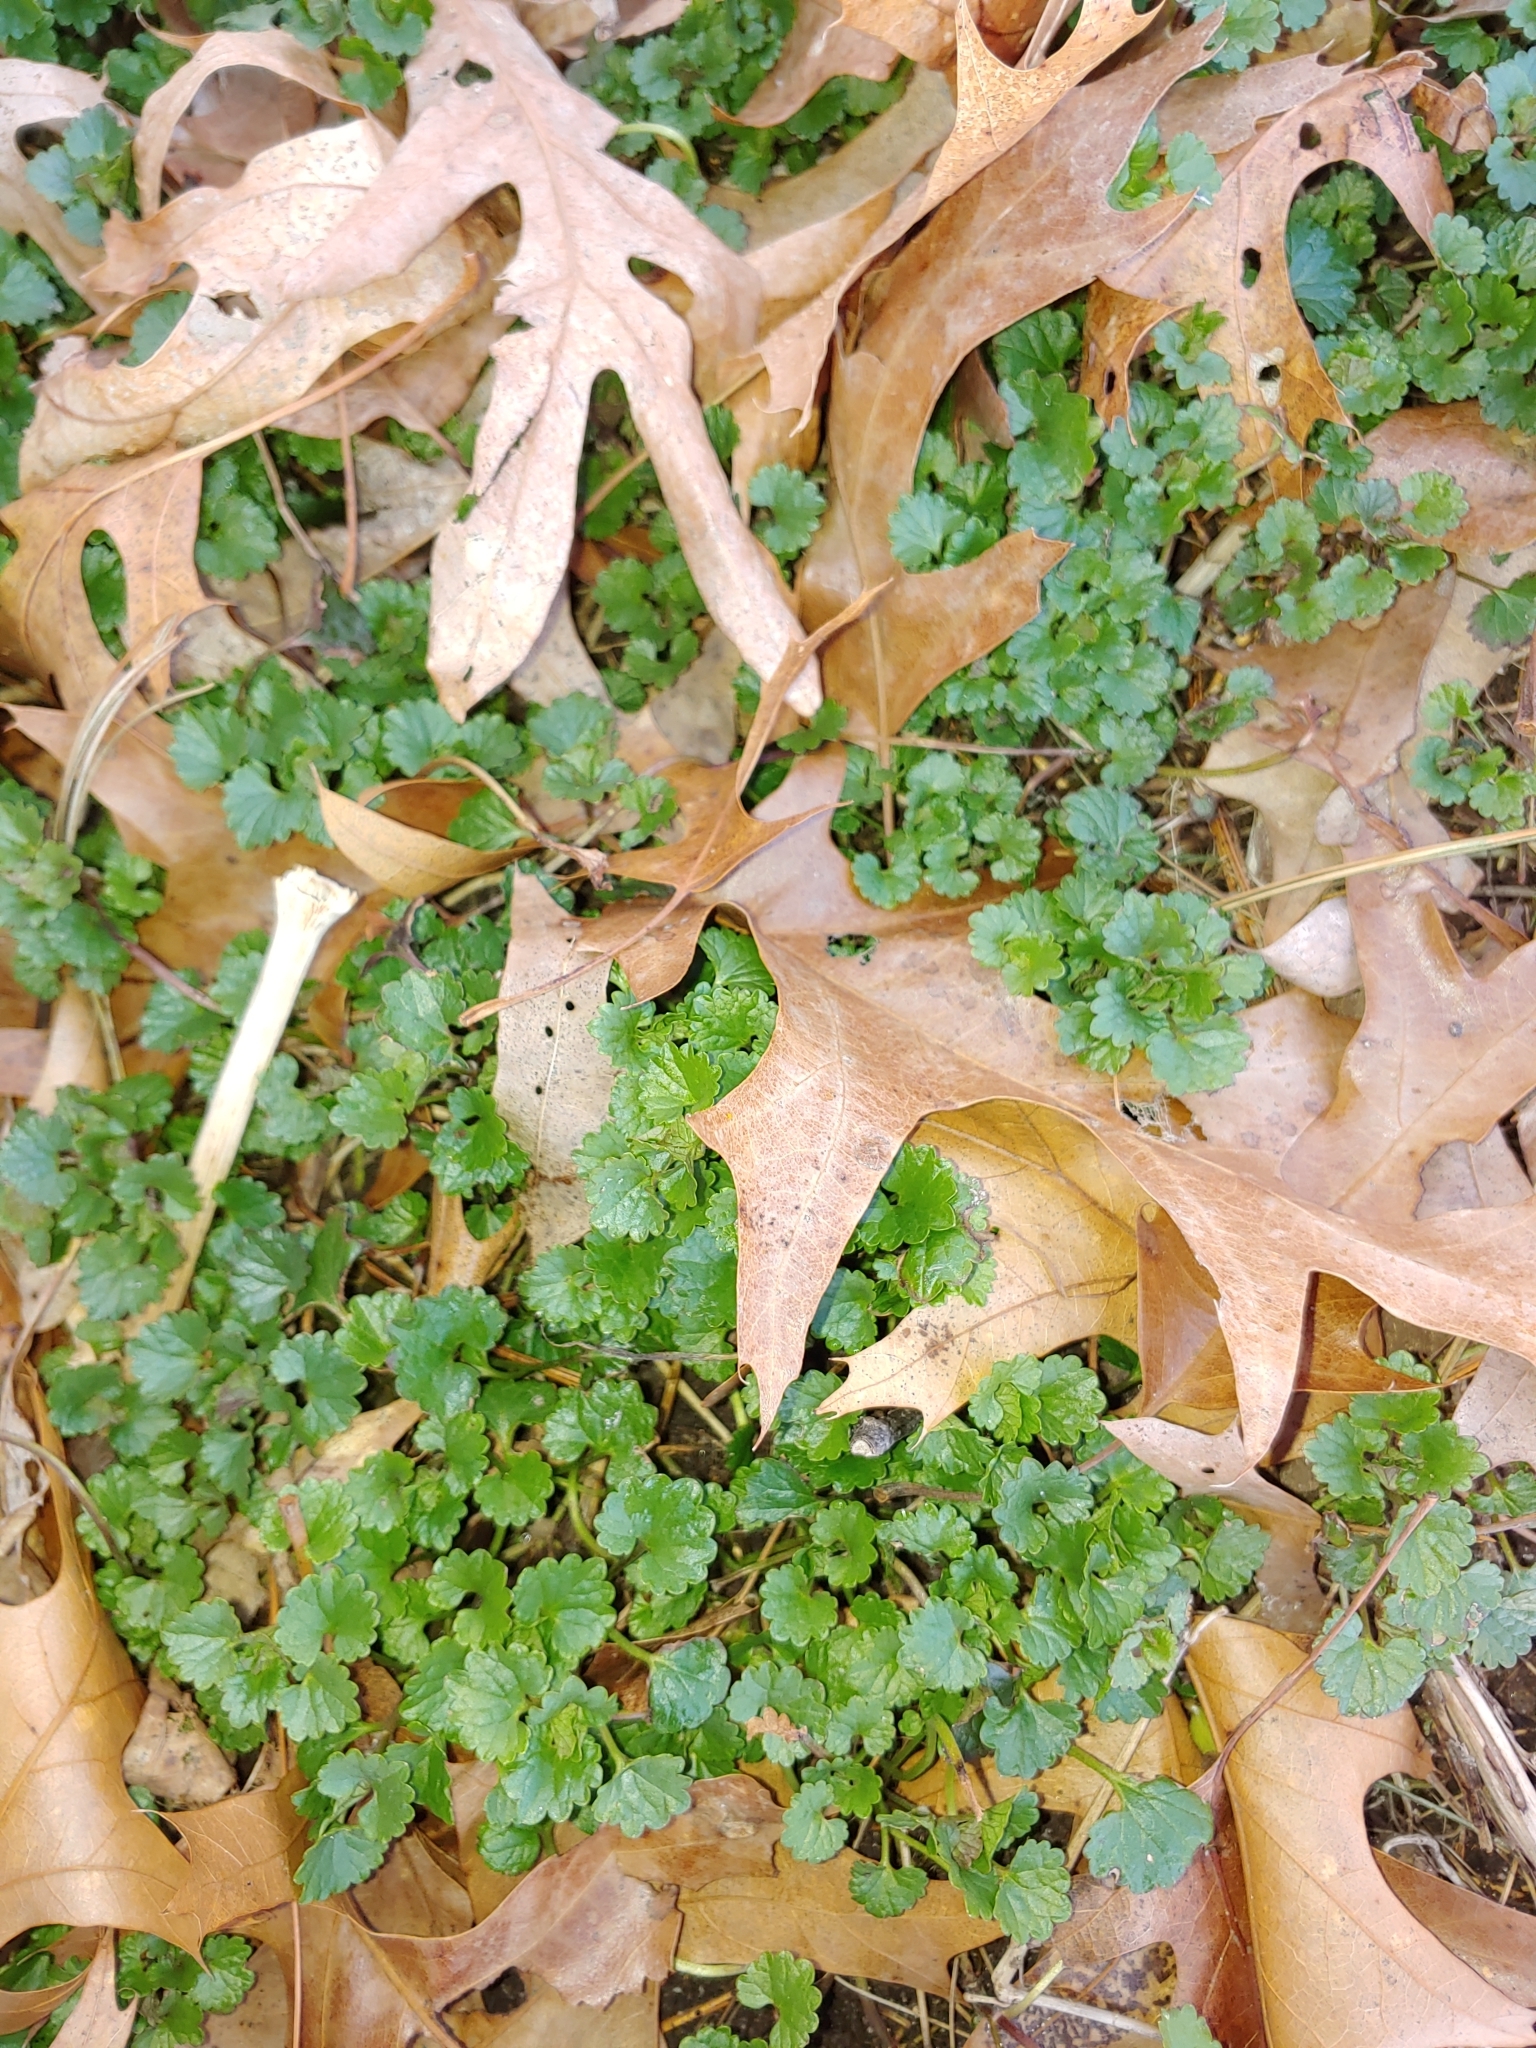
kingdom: Plantae
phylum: Tracheophyta
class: Magnoliopsida
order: Lamiales
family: Lamiaceae
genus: Glechoma
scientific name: Glechoma hederacea
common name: Ground ivy
